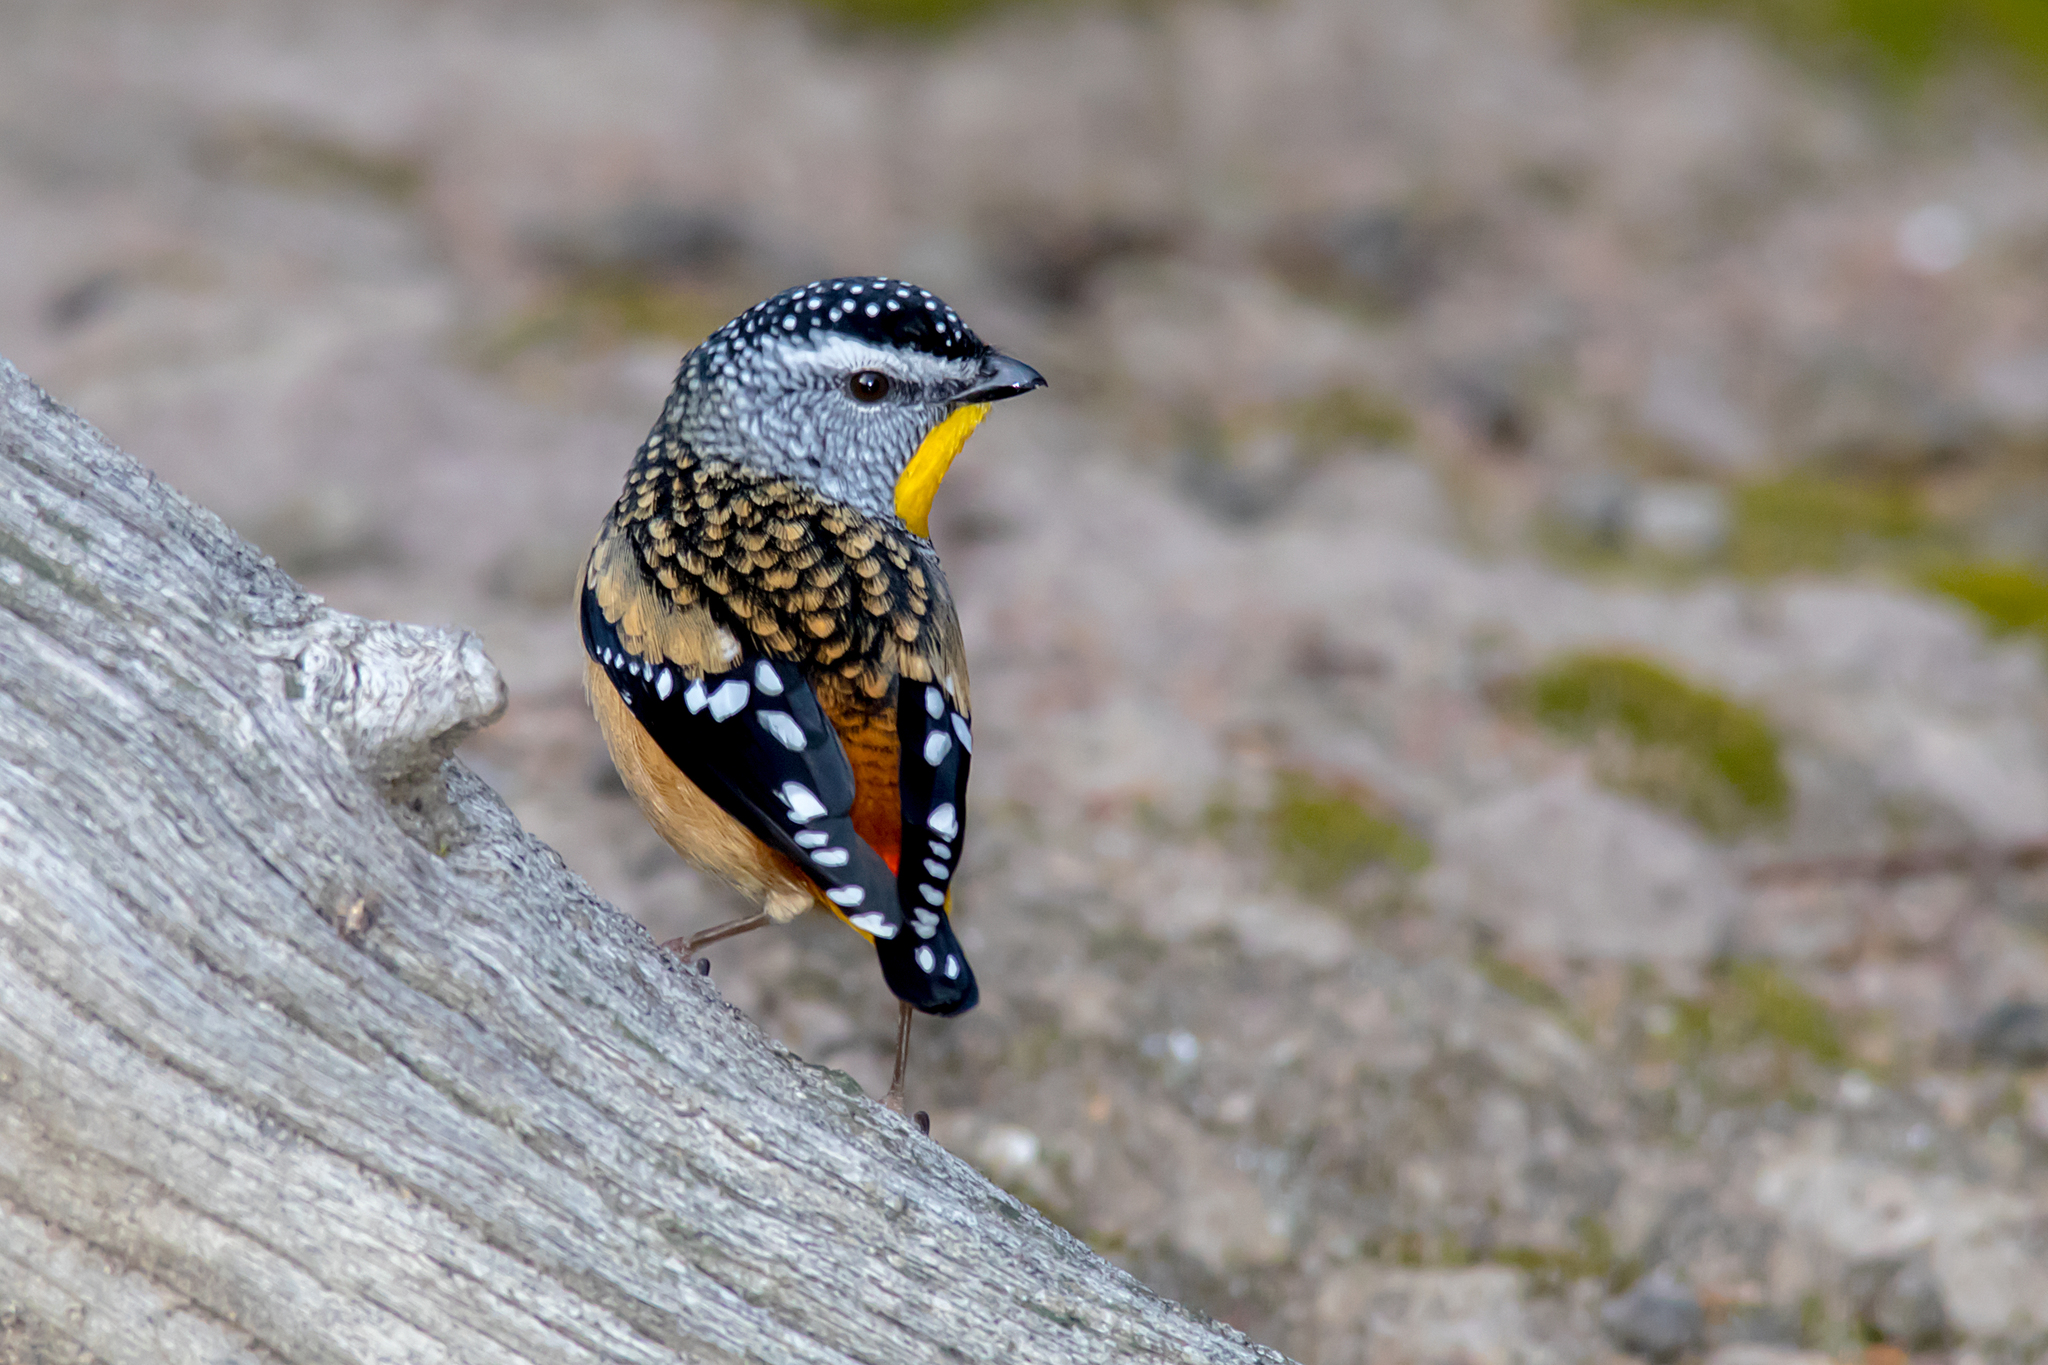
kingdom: Animalia
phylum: Chordata
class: Aves
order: Passeriformes
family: Pardalotidae
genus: Pardalotus
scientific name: Pardalotus punctatus
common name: Spotted pardalote
